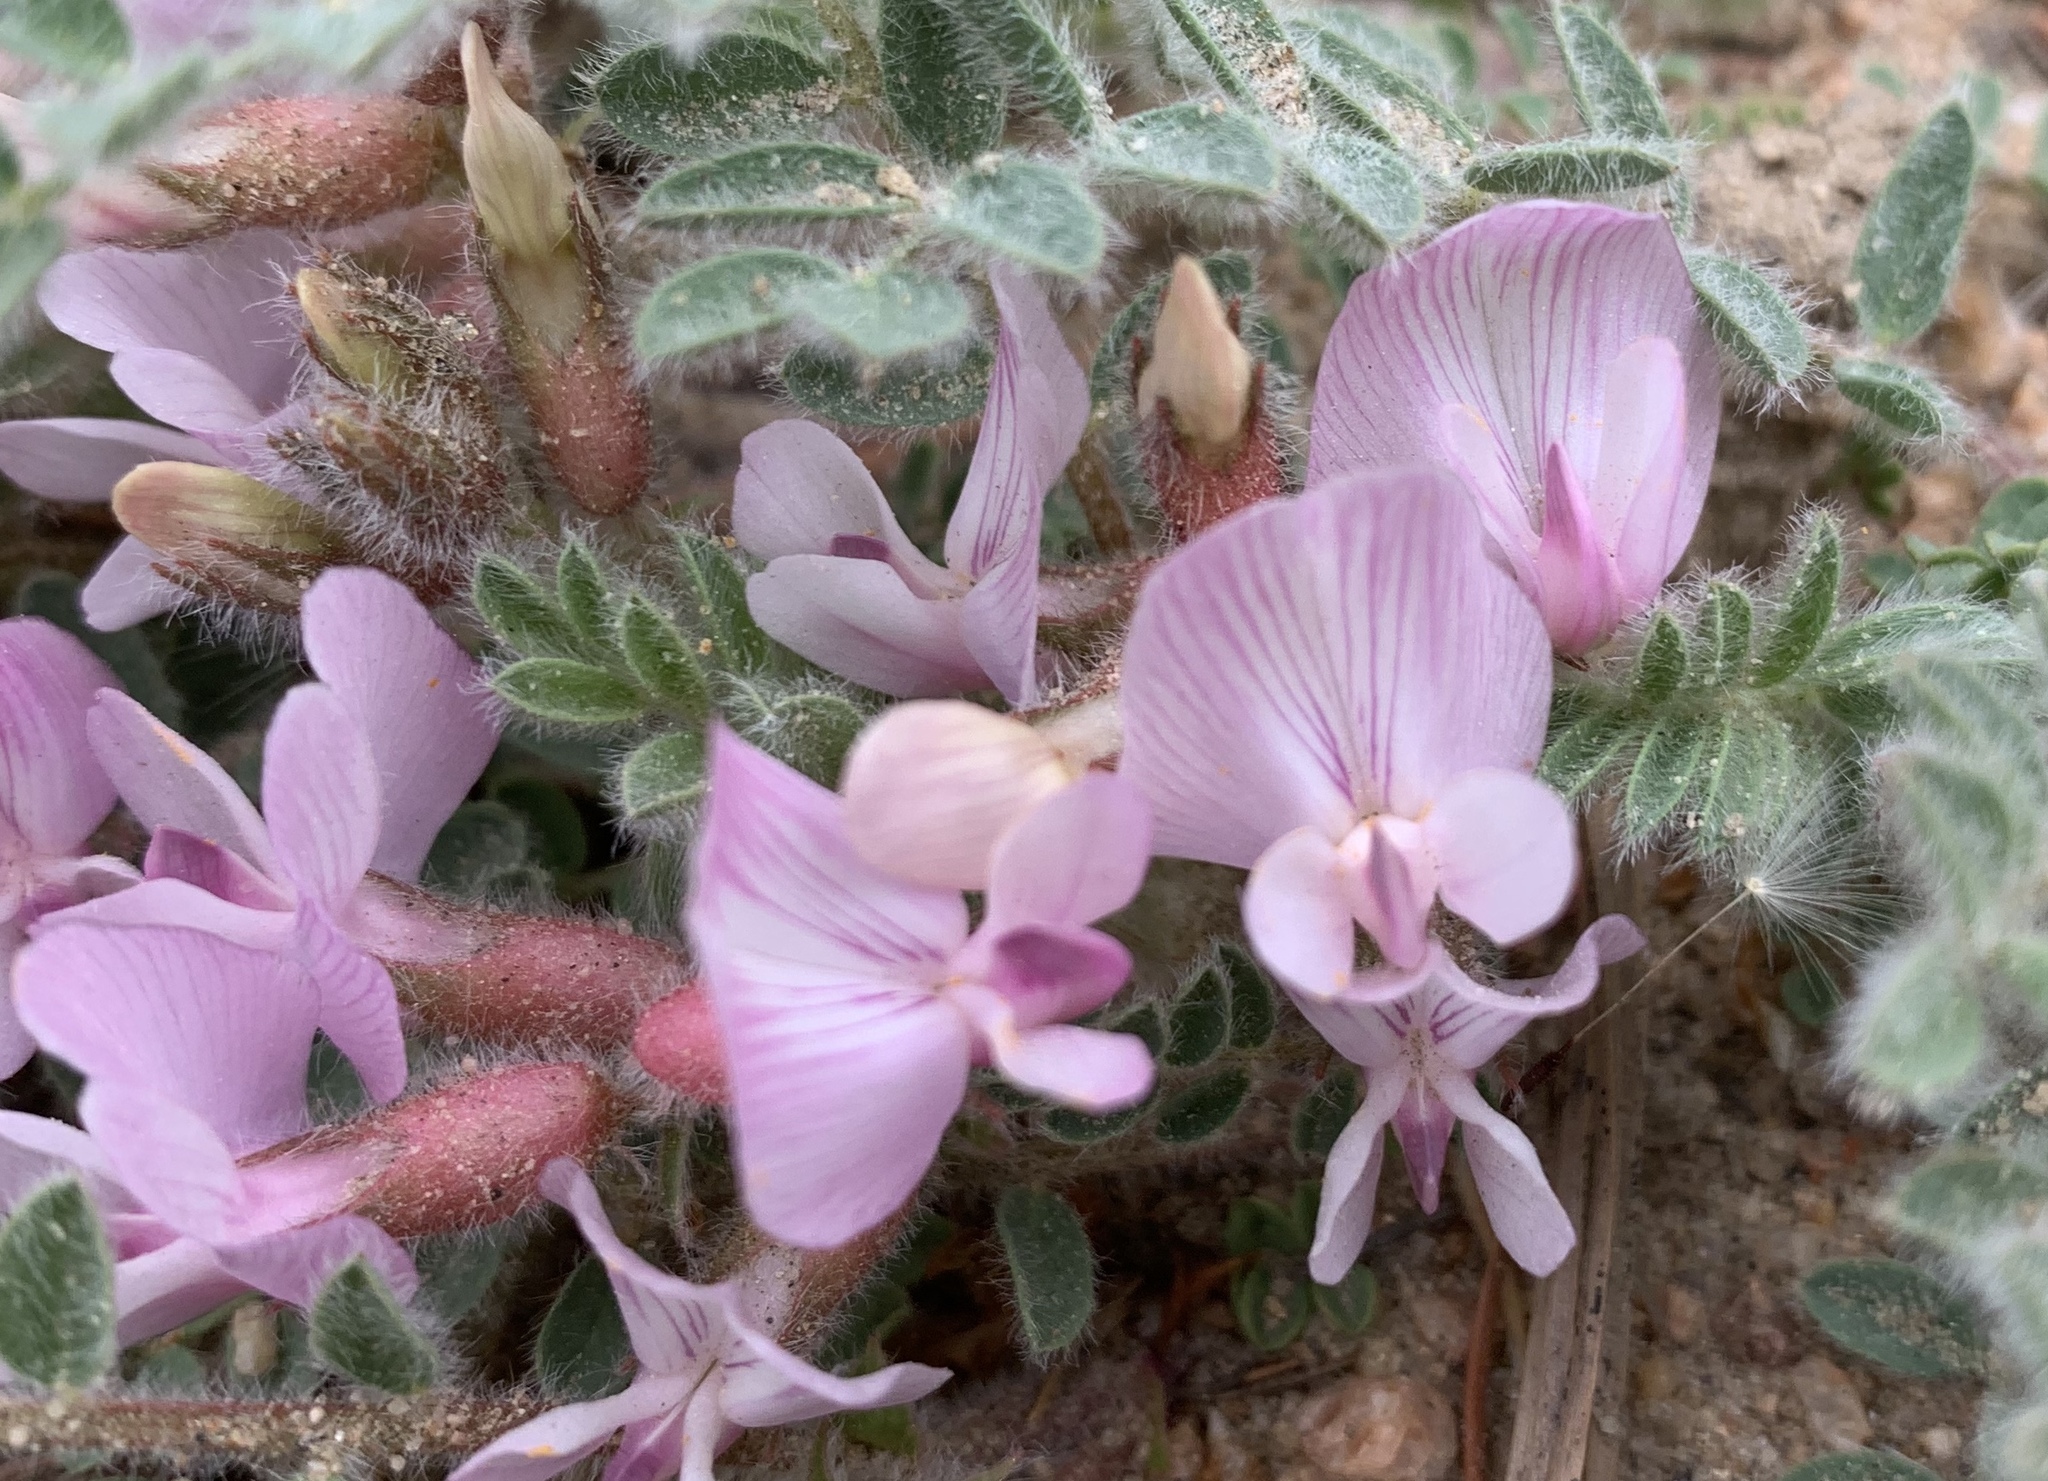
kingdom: Plantae
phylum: Tracheophyta
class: Magnoliopsida
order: Fabales
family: Fabaceae
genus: Astragalus
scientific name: Astragalus parryi
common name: Parry milk-vetch
